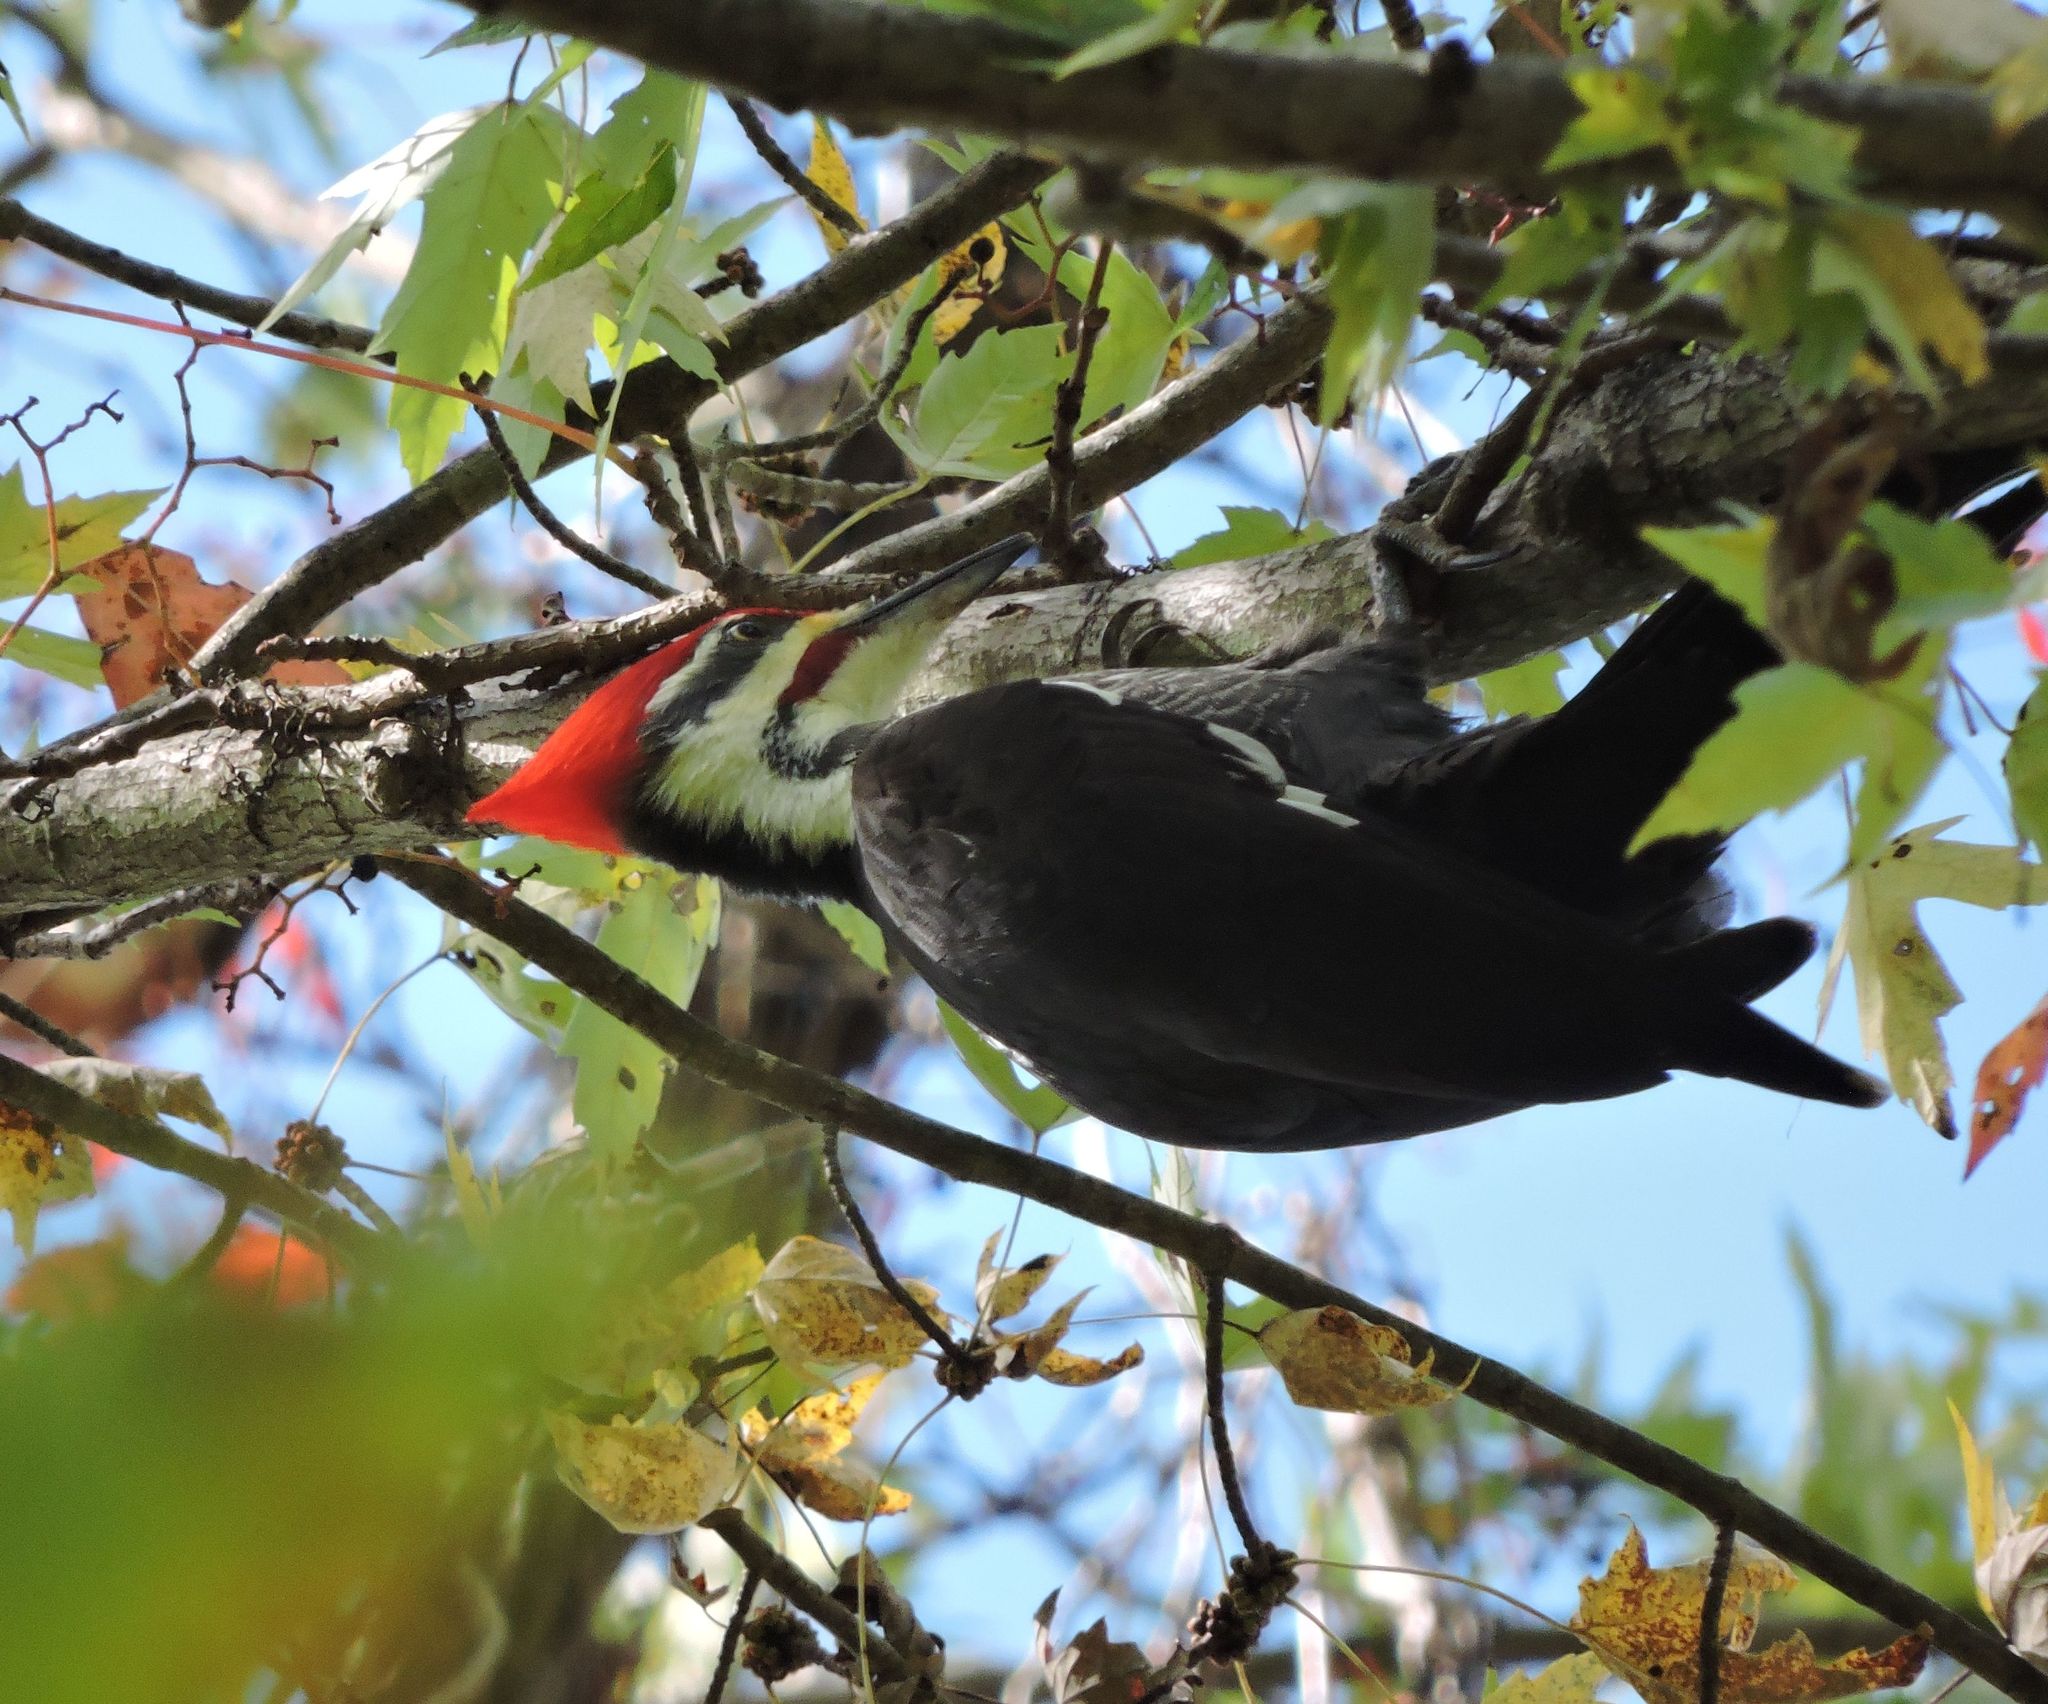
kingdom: Animalia
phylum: Chordata
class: Aves
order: Piciformes
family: Picidae
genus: Dryocopus
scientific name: Dryocopus pileatus
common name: Pileated woodpecker
